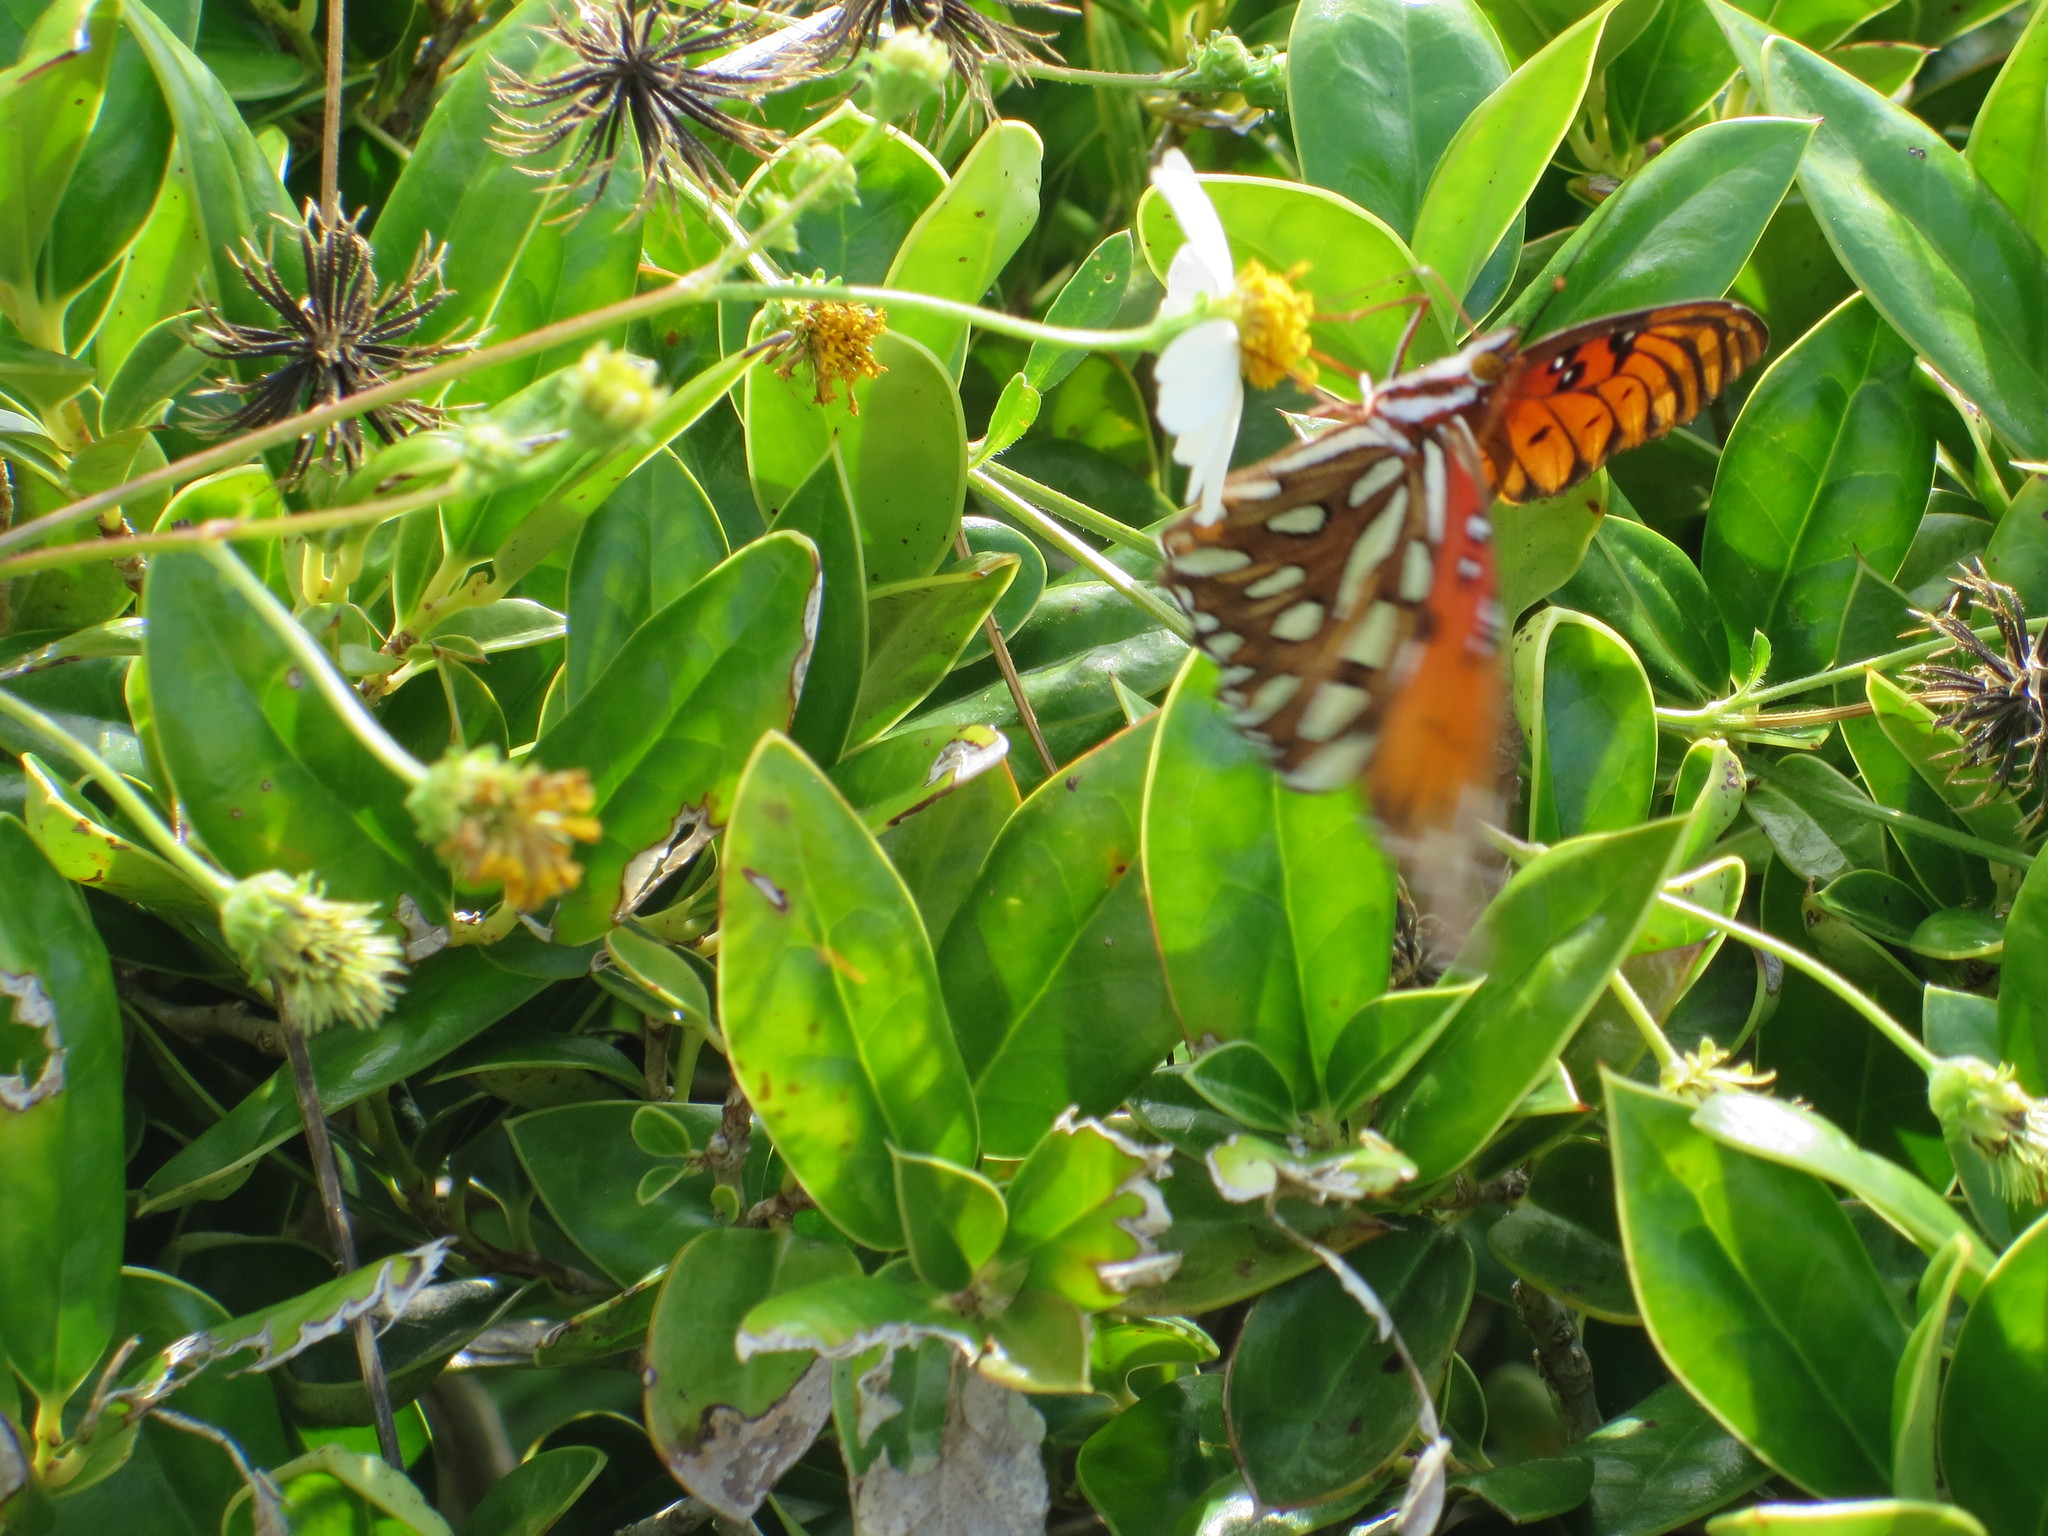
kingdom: Animalia
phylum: Arthropoda
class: Insecta
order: Lepidoptera
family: Nymphalidae
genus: Dione
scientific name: Dione vanillae
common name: Gulf fritillary
